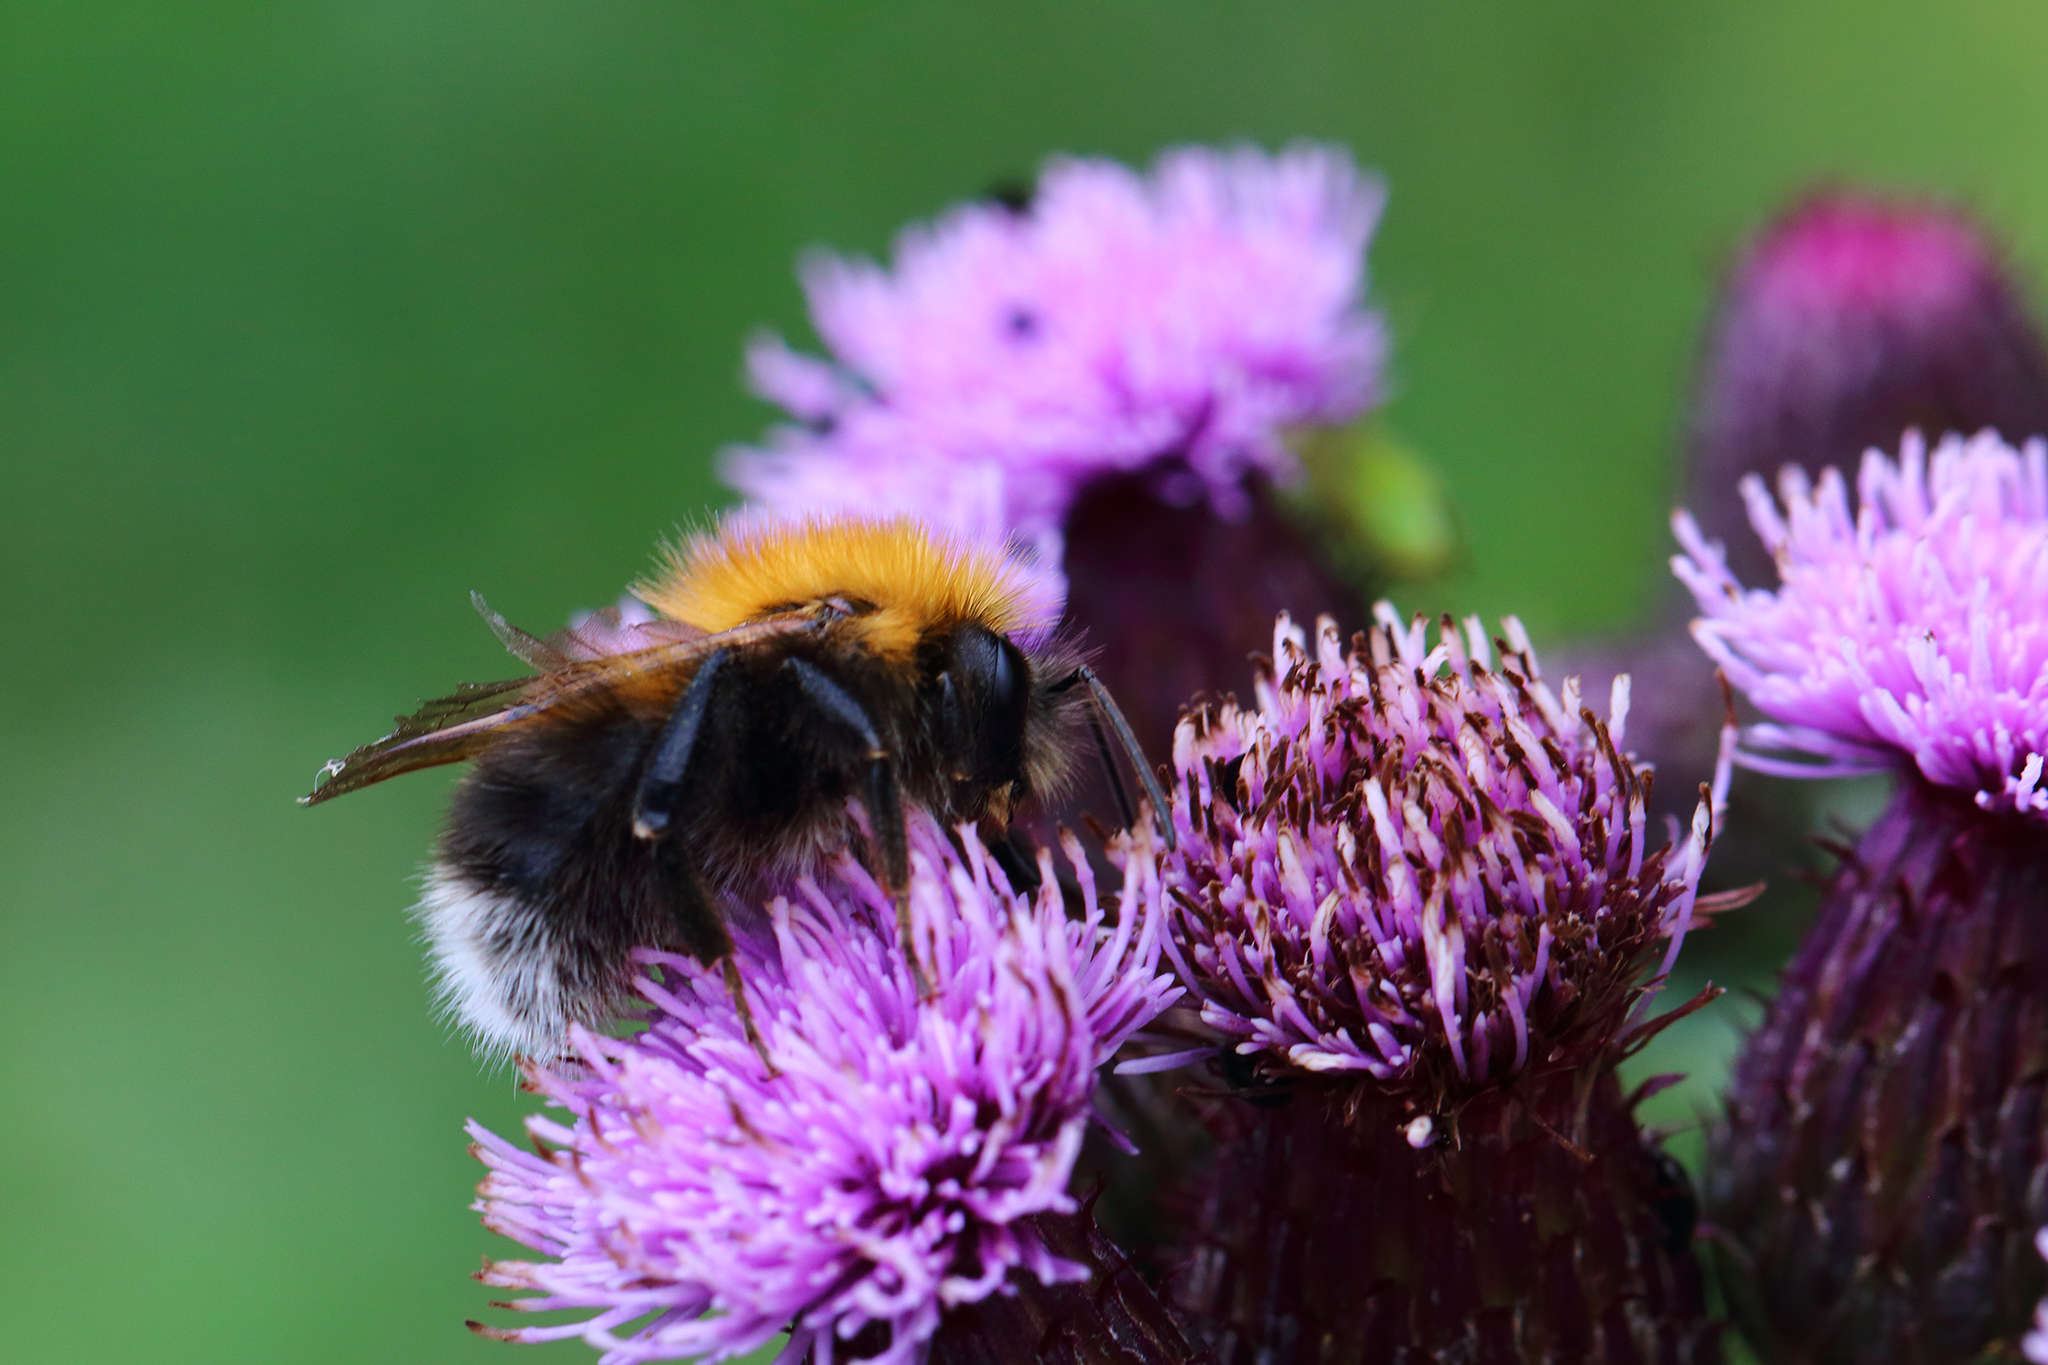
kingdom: Animalia
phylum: Arthropoda
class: Insecta
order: Hymenoptera
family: Apidae
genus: Bombus
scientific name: Bombus hypnorum
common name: New garden bumblebee
